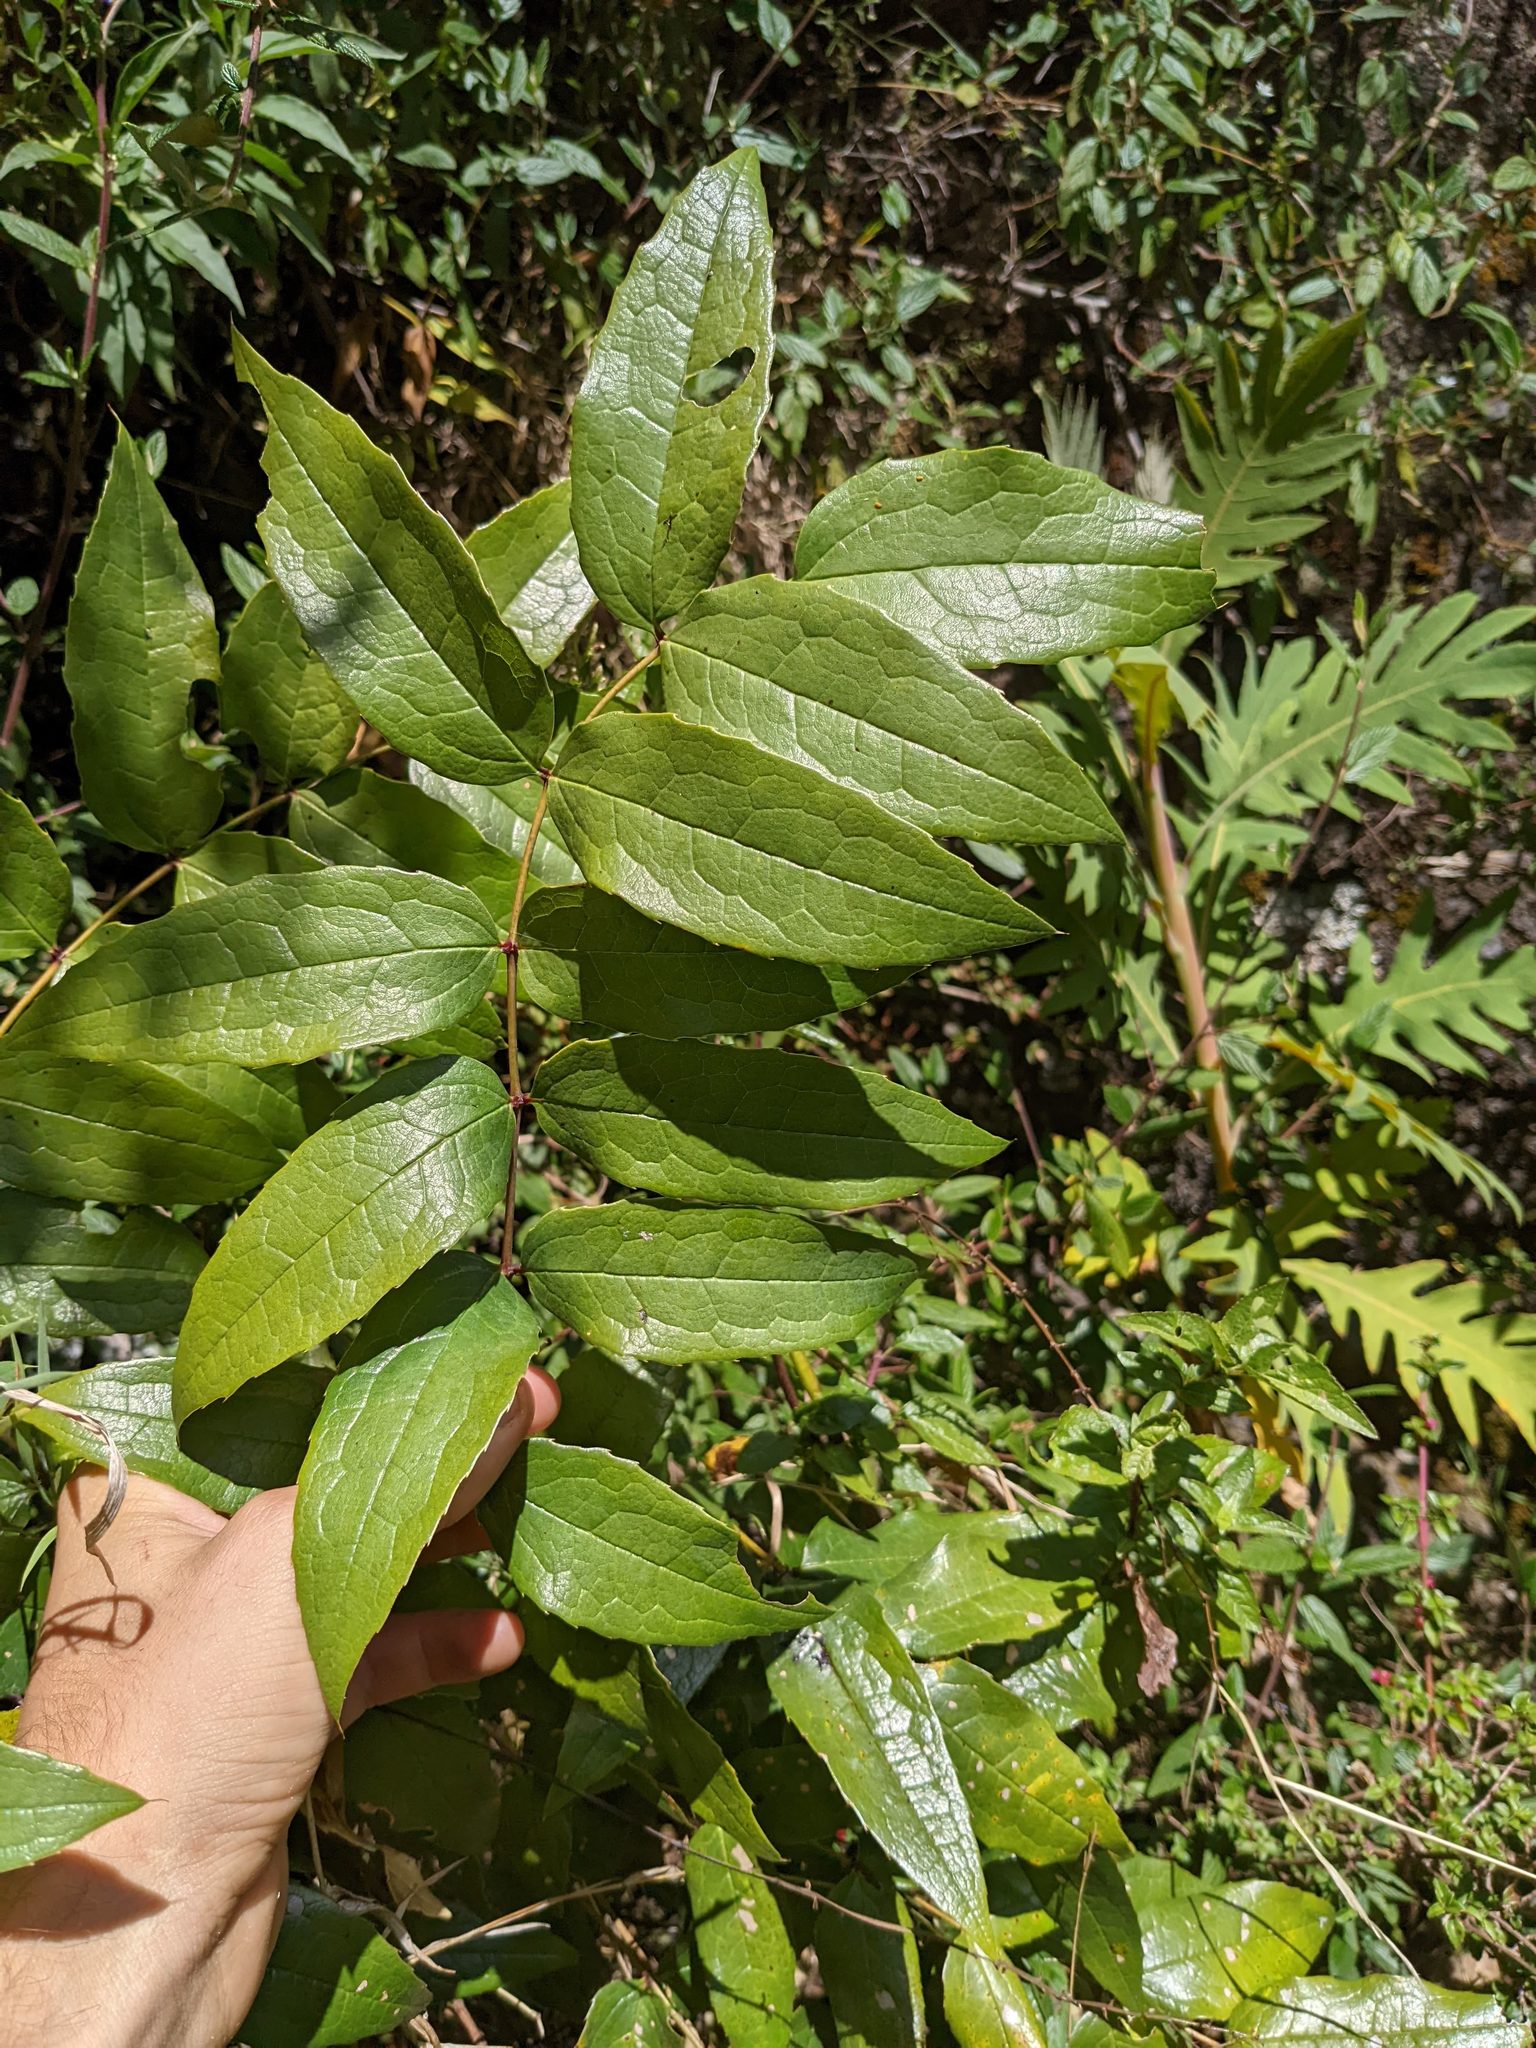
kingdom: Plantae
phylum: Tracheophyta
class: Magnoliopsida
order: Ranunculales
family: Berberidaceae
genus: Berberis
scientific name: Berberis hemsleyi
